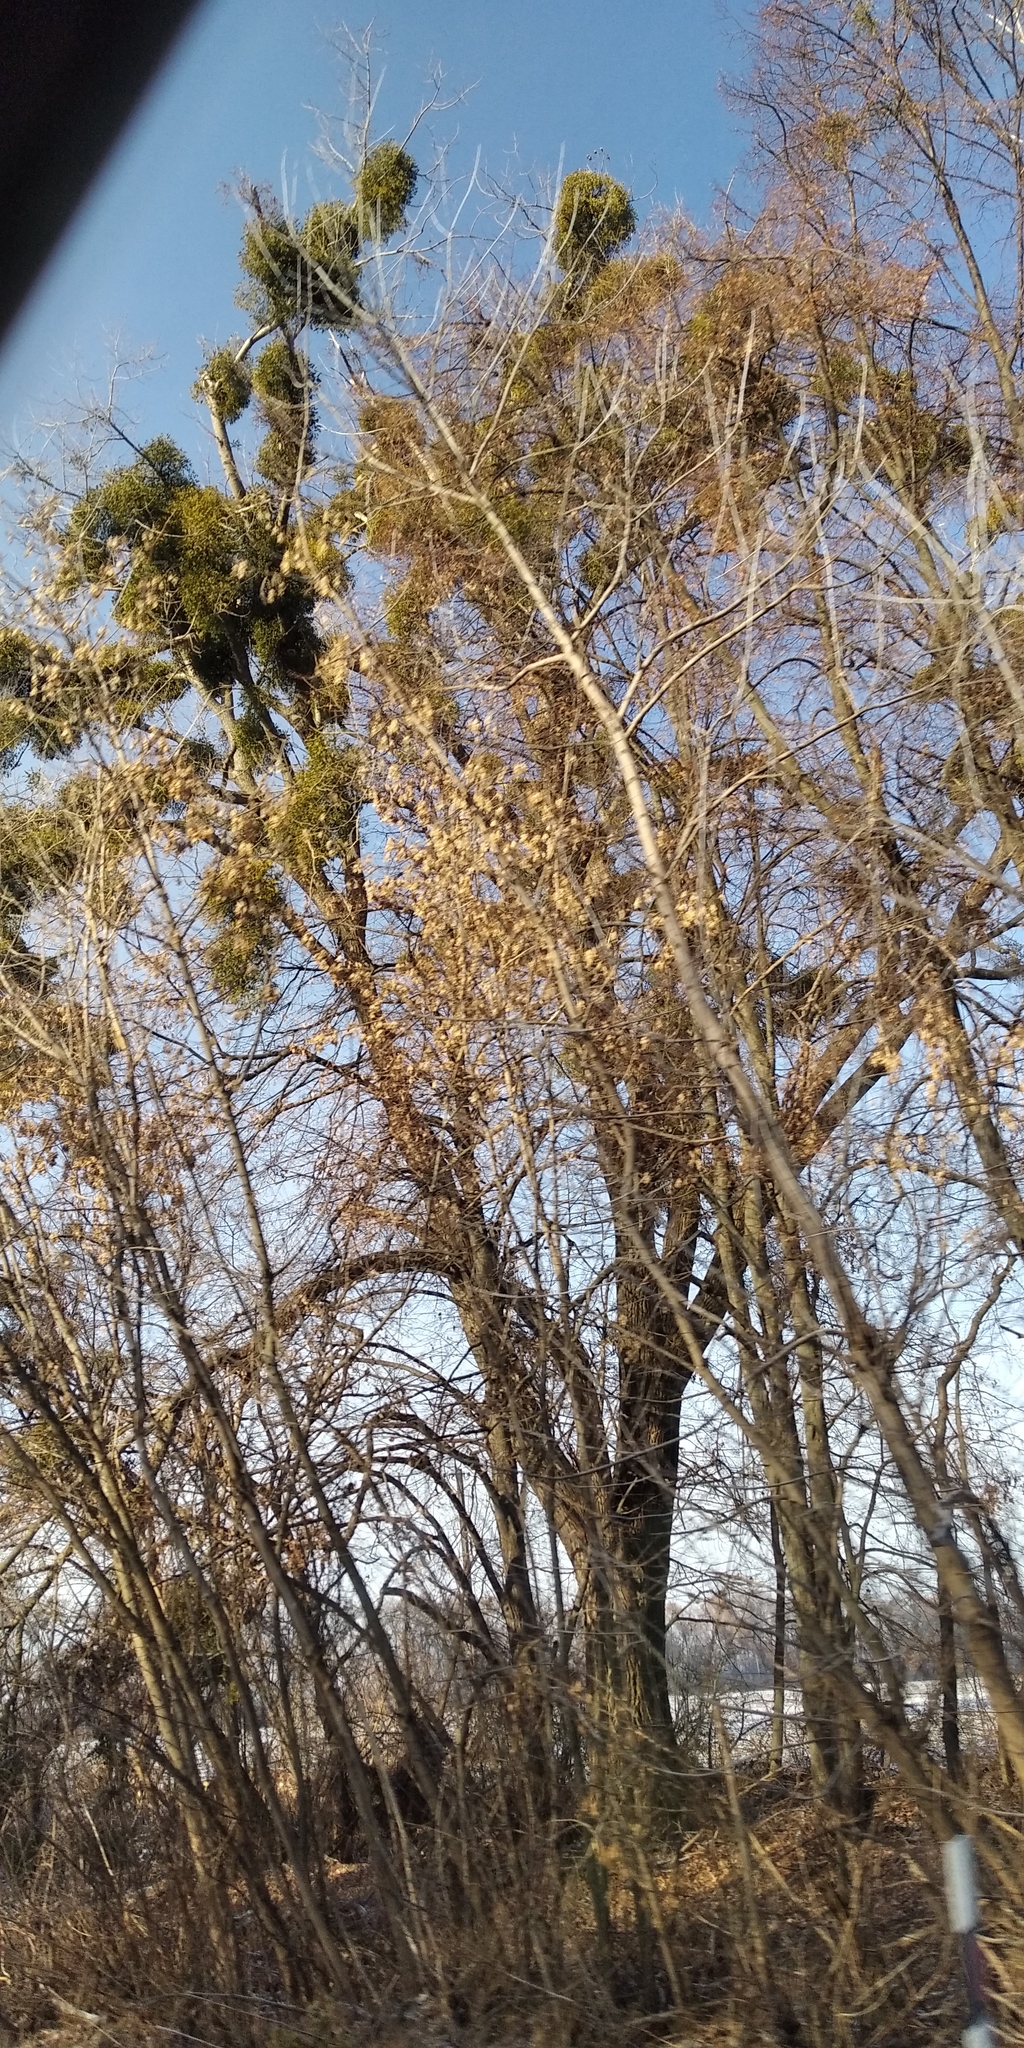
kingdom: Plantae
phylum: Tracheophyta
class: Magnoliopsida
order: Santalales
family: Viscaceae
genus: Viscum
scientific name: Viscum album
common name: Mistletoe
